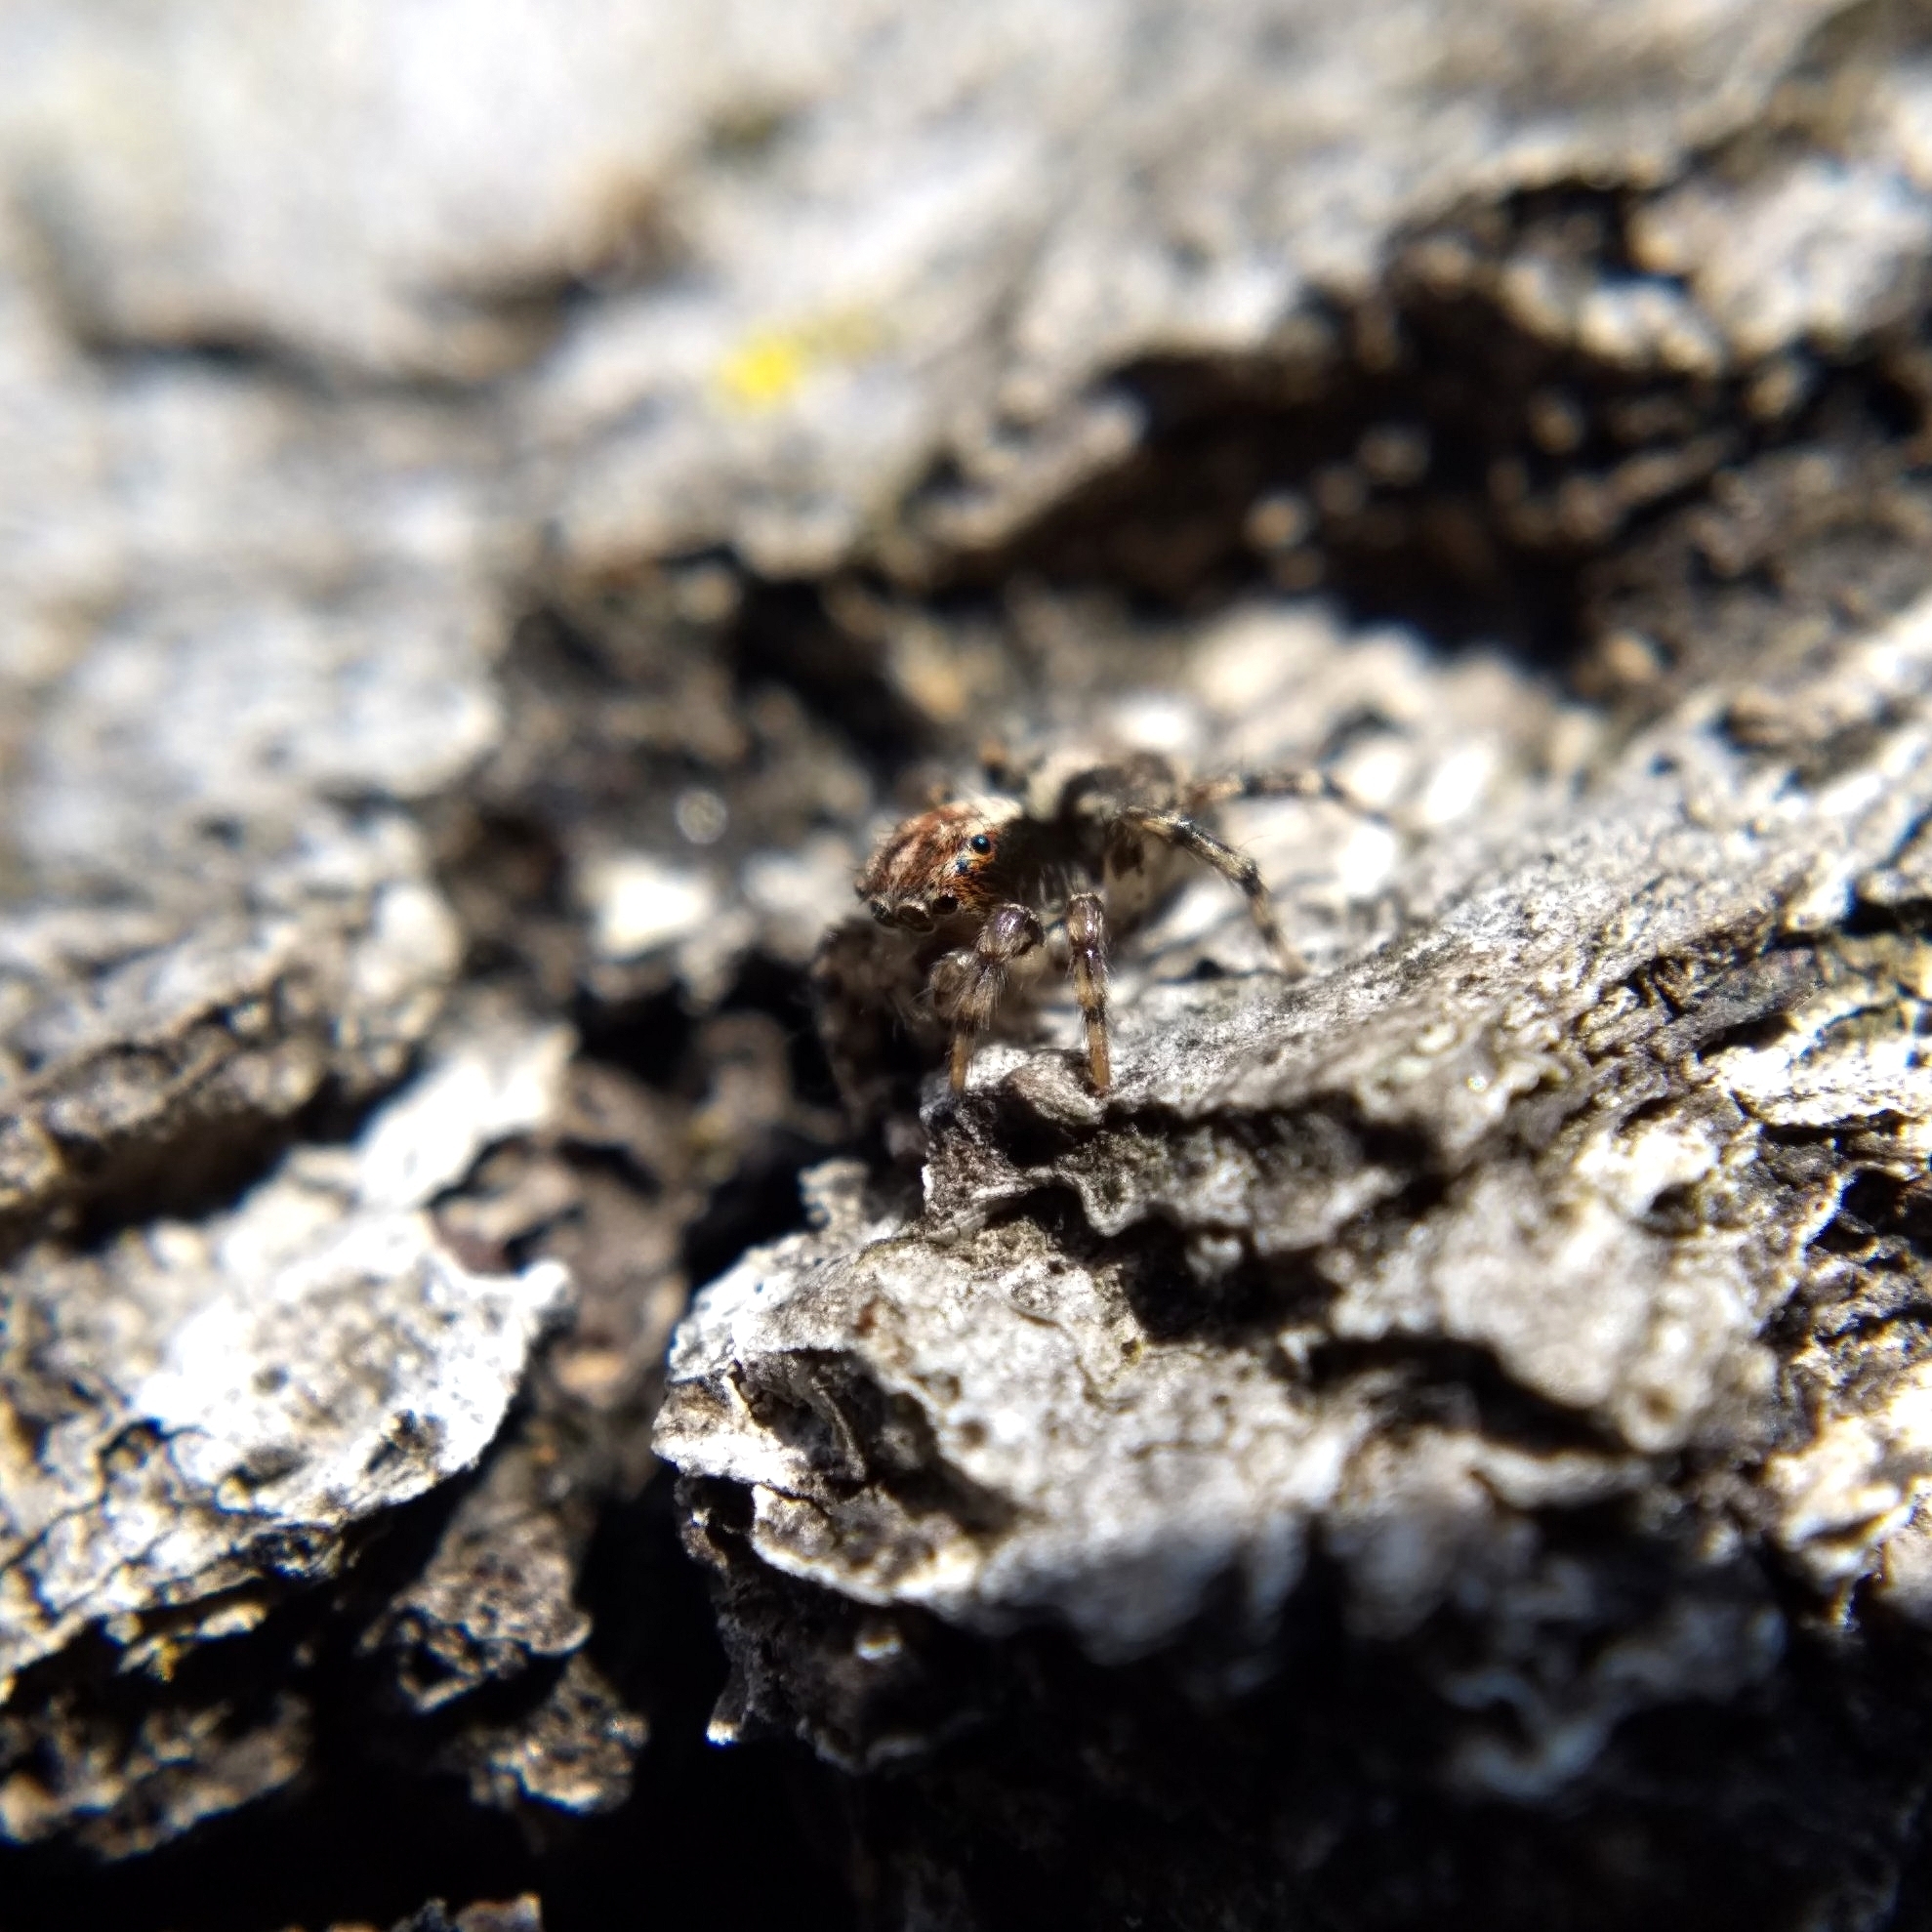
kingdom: Animalia
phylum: Arthropoda
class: Arachnida
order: Araneae
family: Salticidae
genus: Naphrys
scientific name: Naphrys pulex
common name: Flea jumping spider
